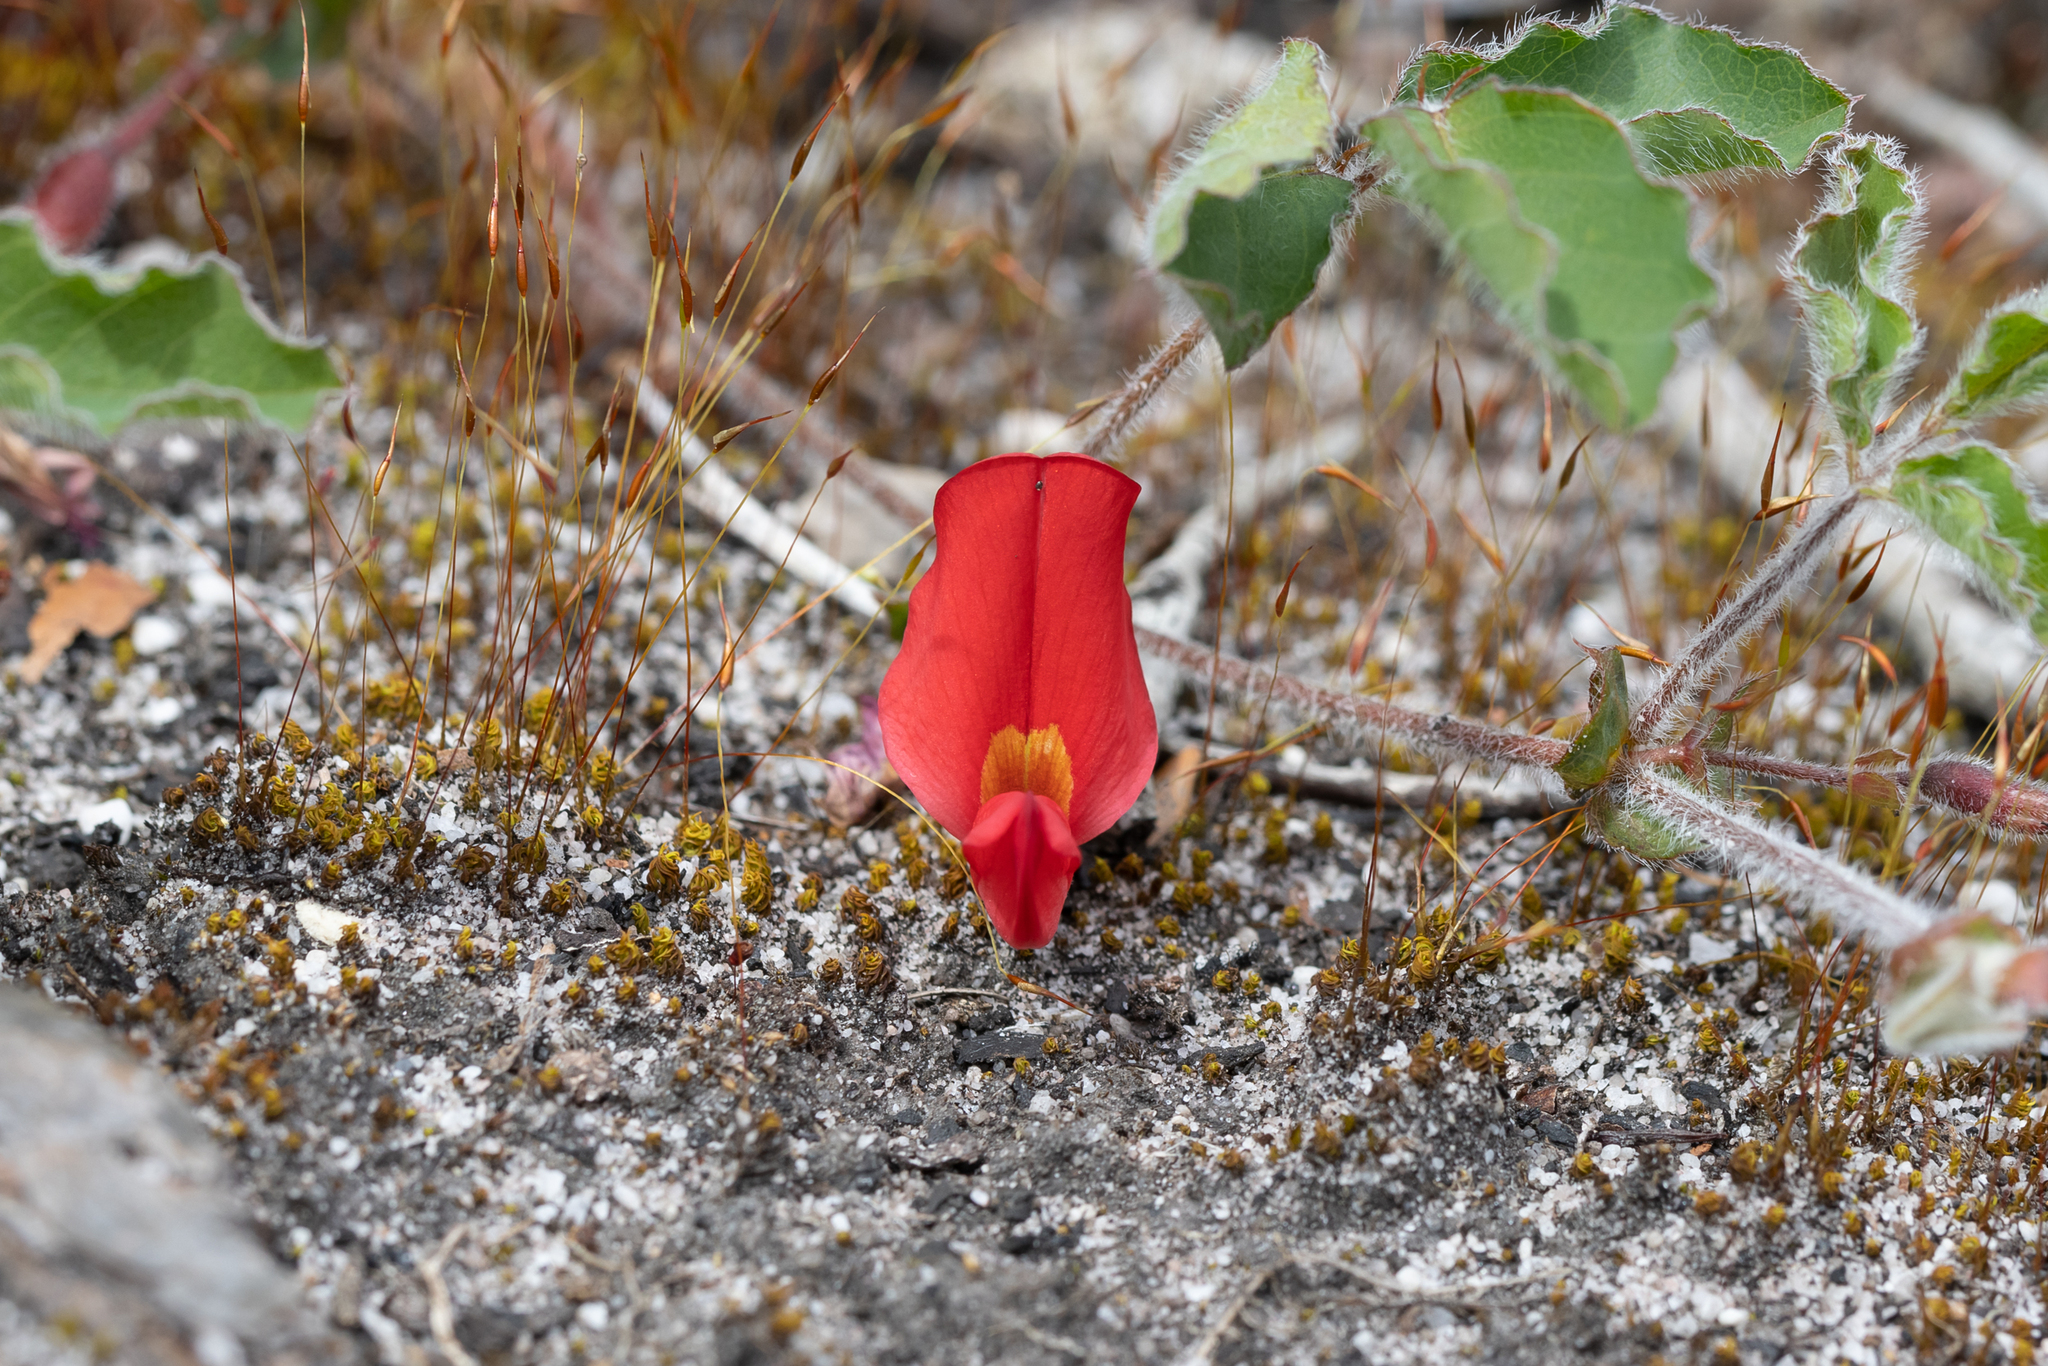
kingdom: Plantae
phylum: Tracheophyta
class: Magnoliopsida
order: Fabales
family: Fabaceae
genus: Kennedia
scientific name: Kennedia prostrata
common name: Running-postman
